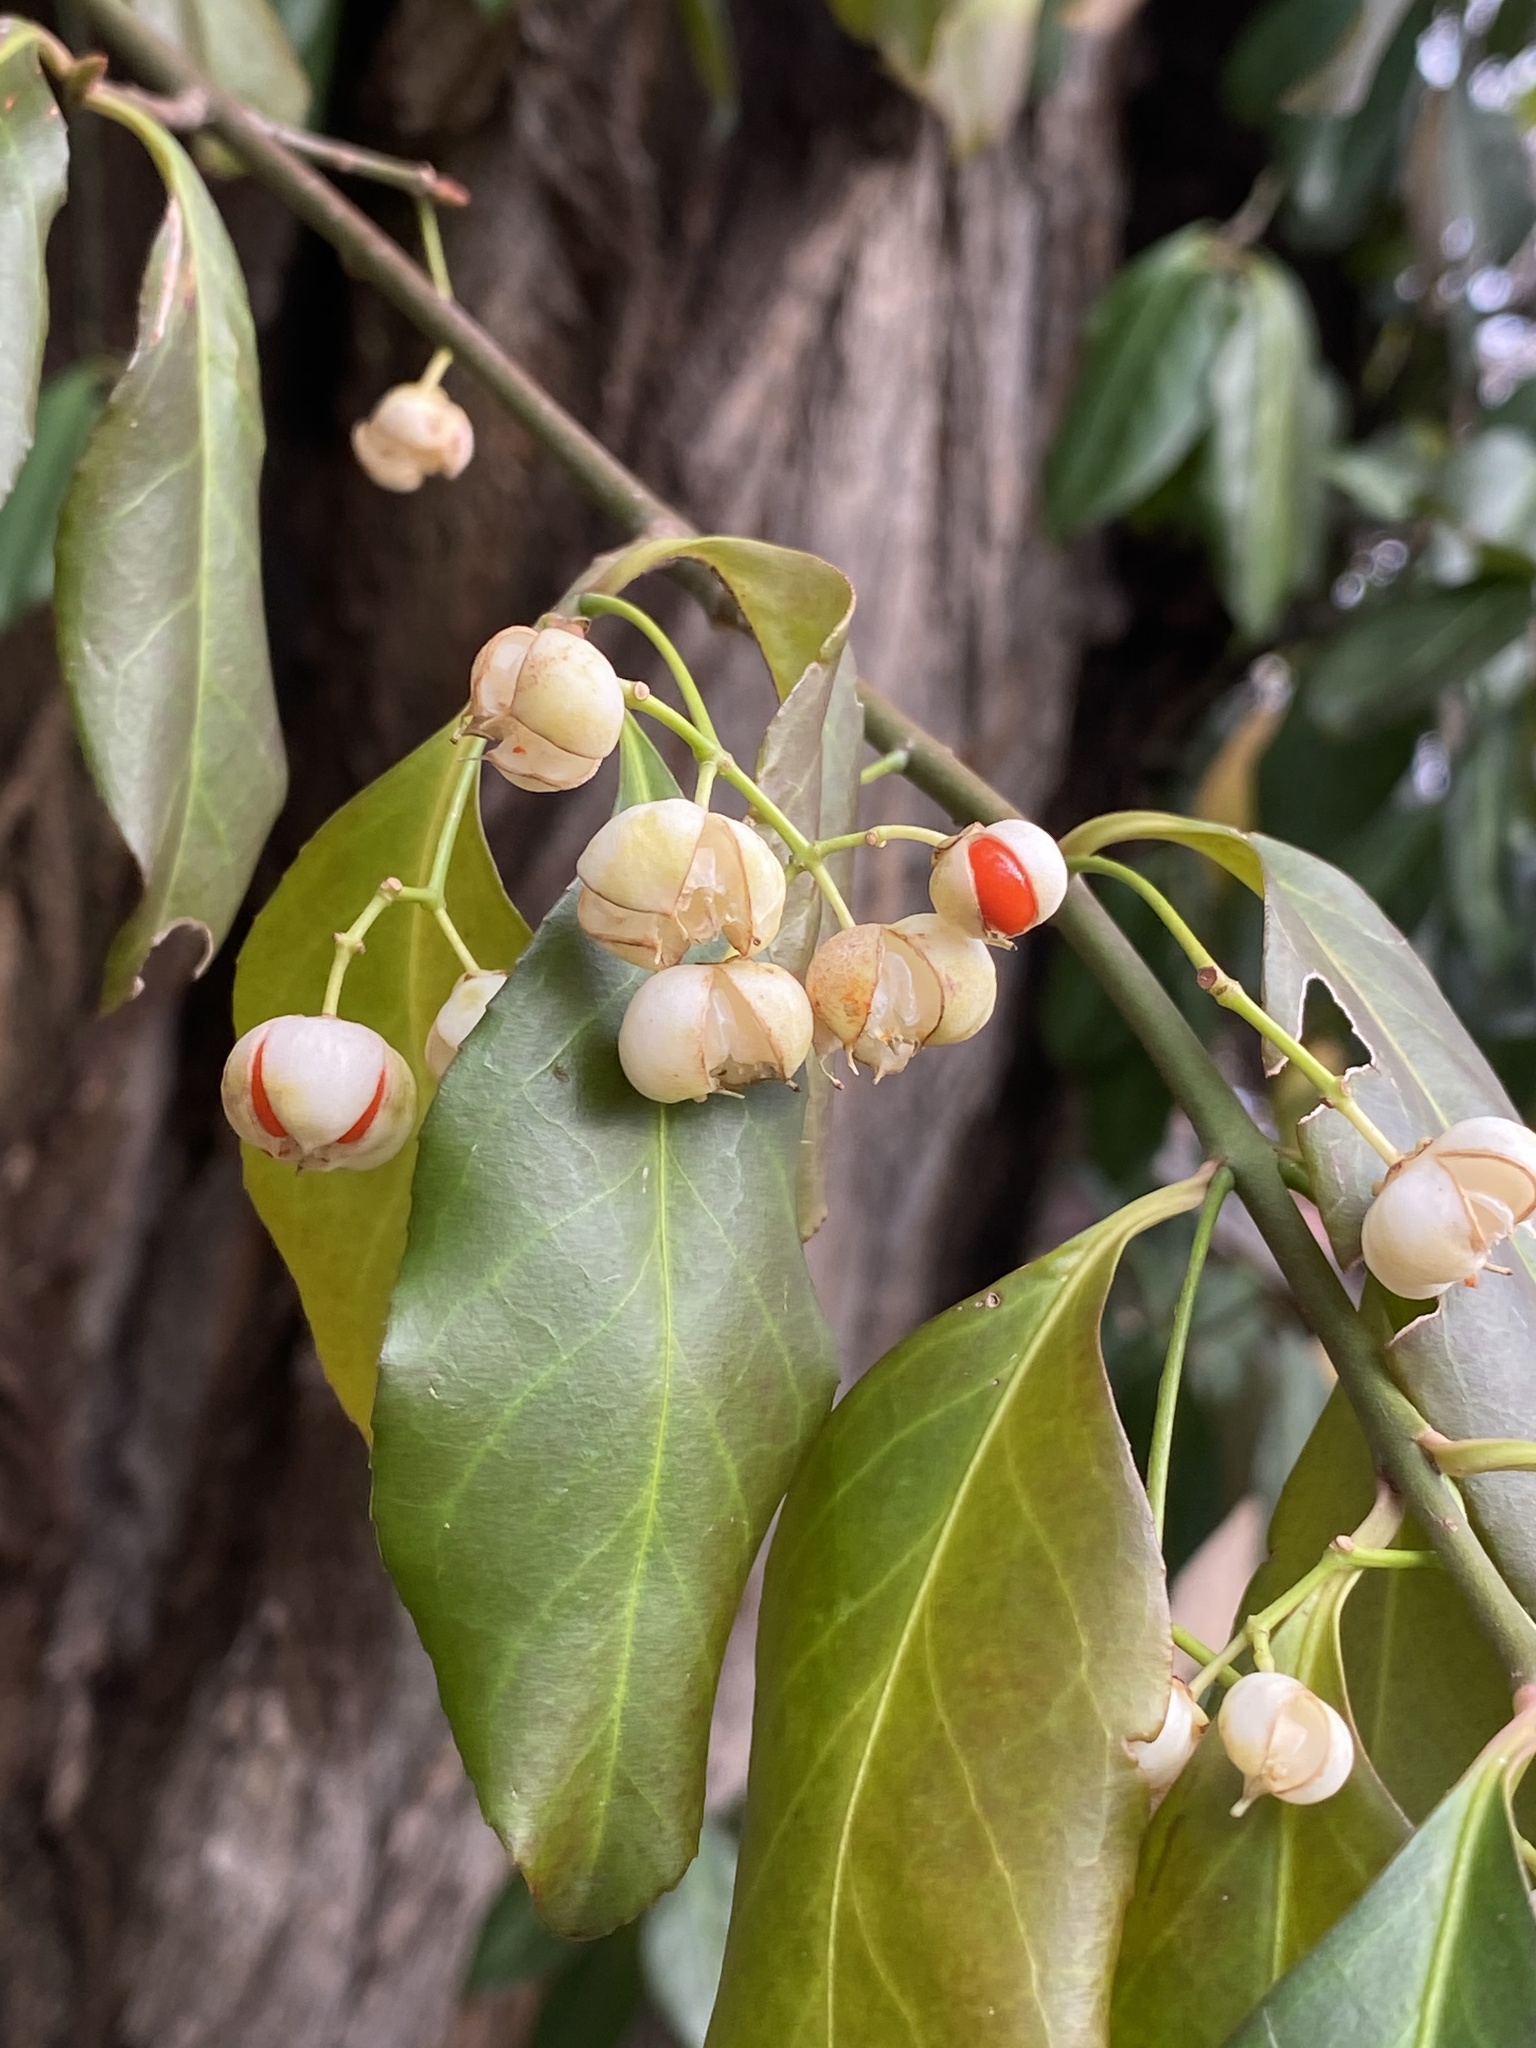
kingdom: Plantae
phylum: Tracheophyta
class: Magnoliopsida
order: Celastrales
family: Celastraceae
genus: Euonymus
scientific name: Euonymus fortunei
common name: Climbing euonymus
